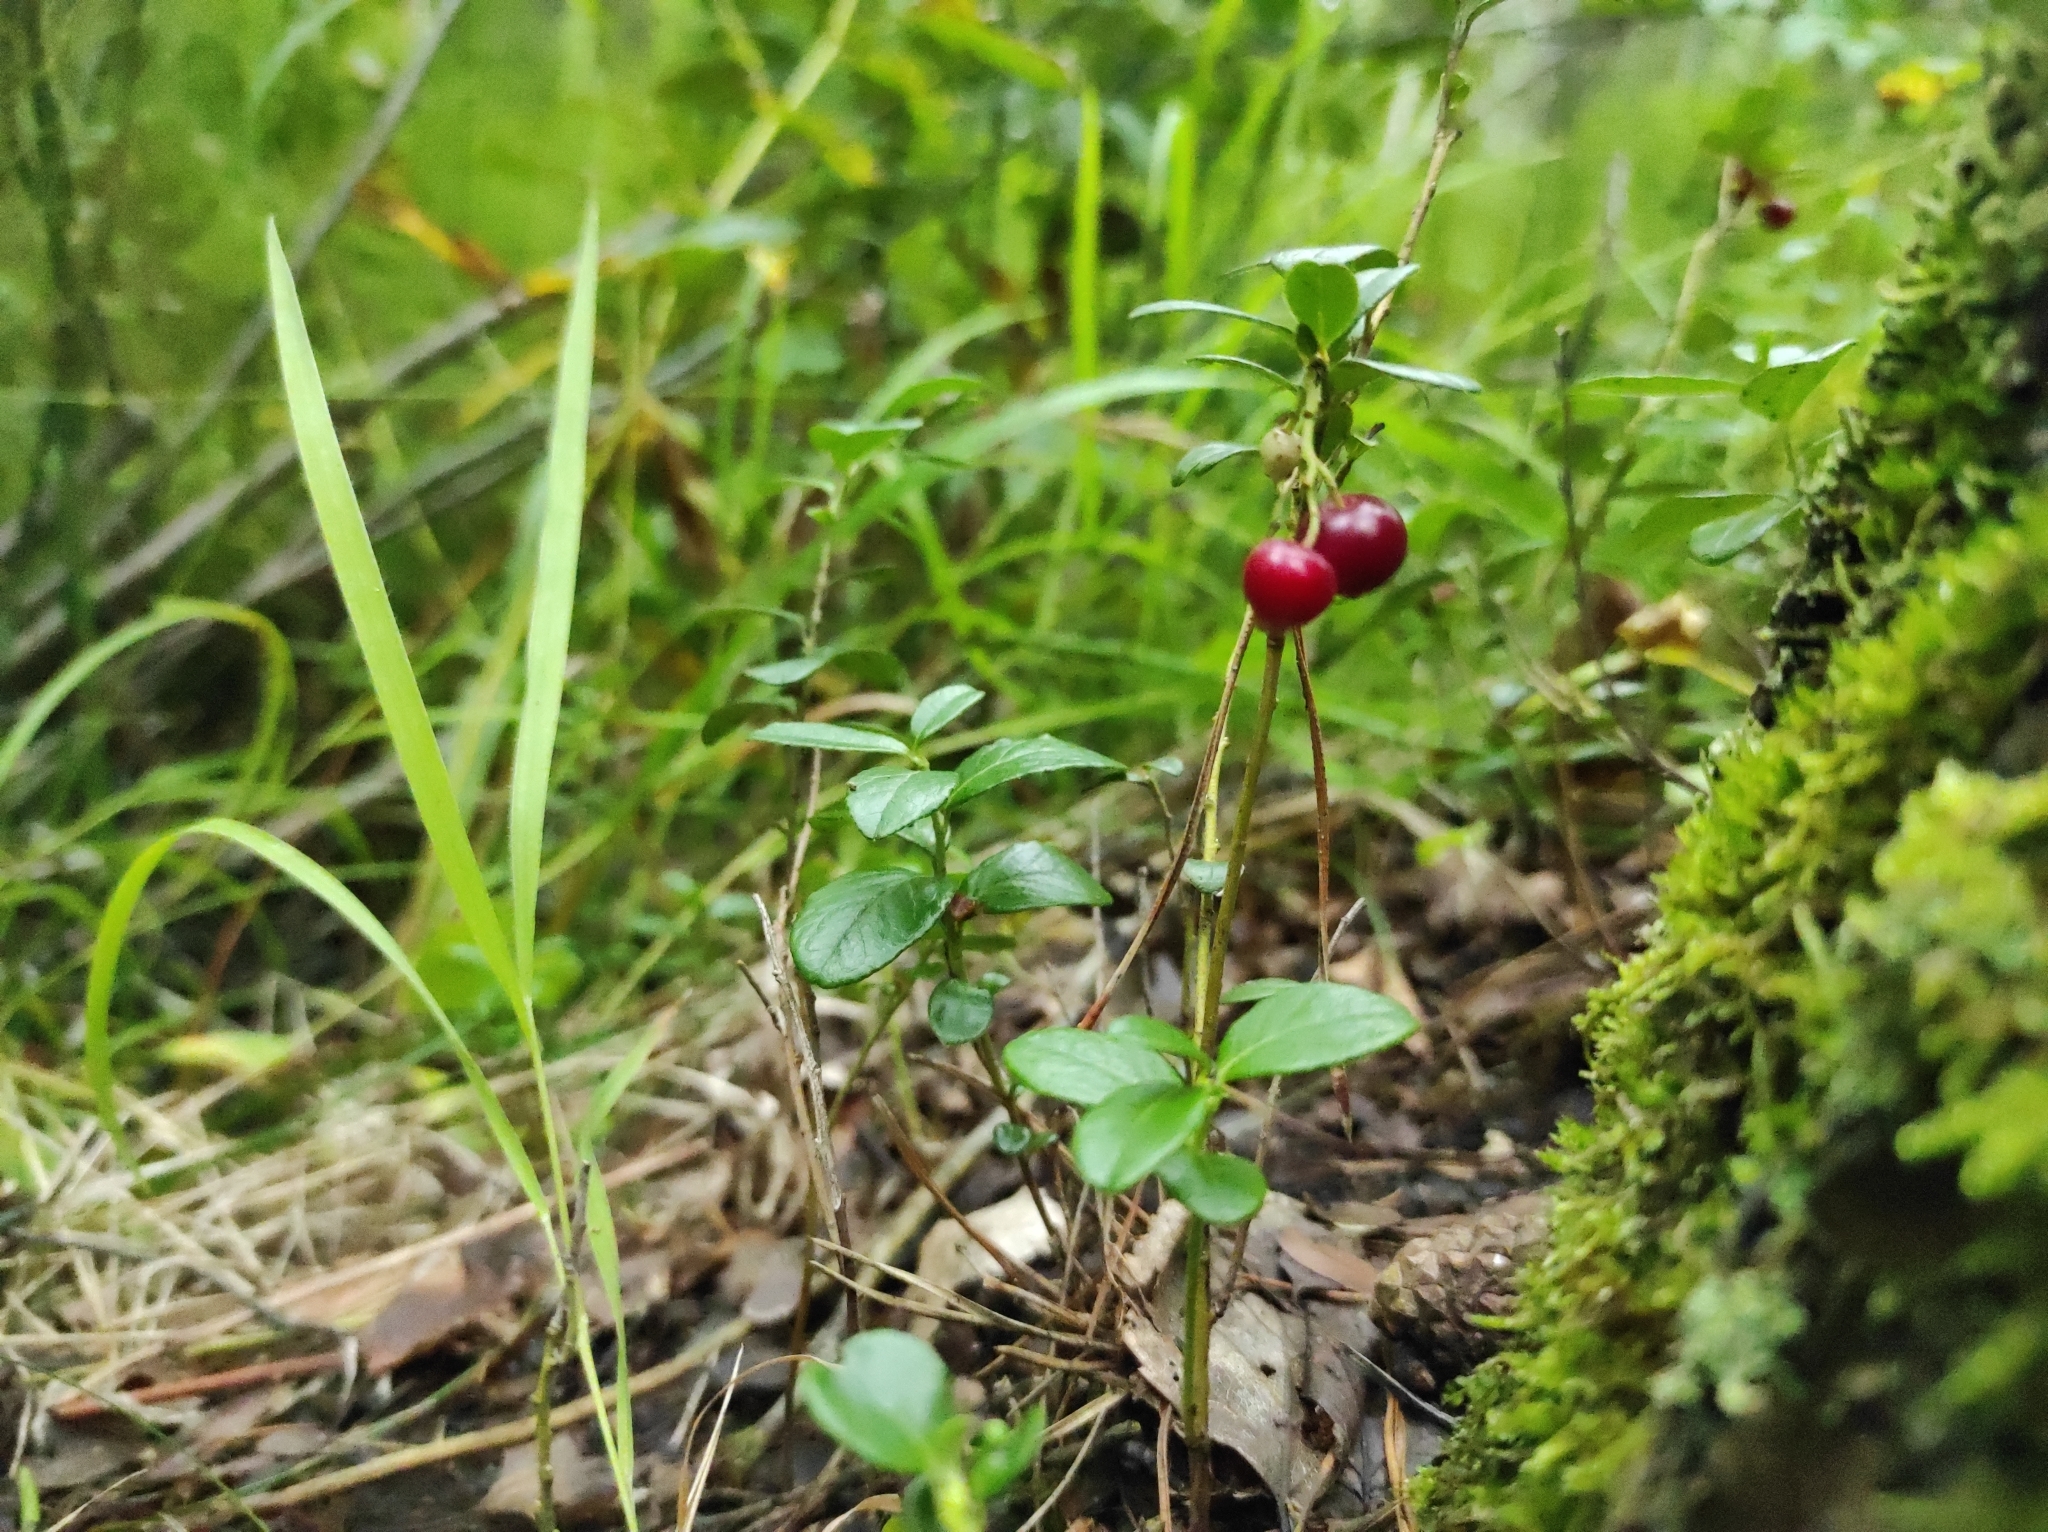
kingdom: Plantae
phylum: Tracheophyta
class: Magnoliopsida
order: Ericales
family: Ericaceae
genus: Vaccinium
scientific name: Vaccinium vitis-idaea
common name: Cowberry
